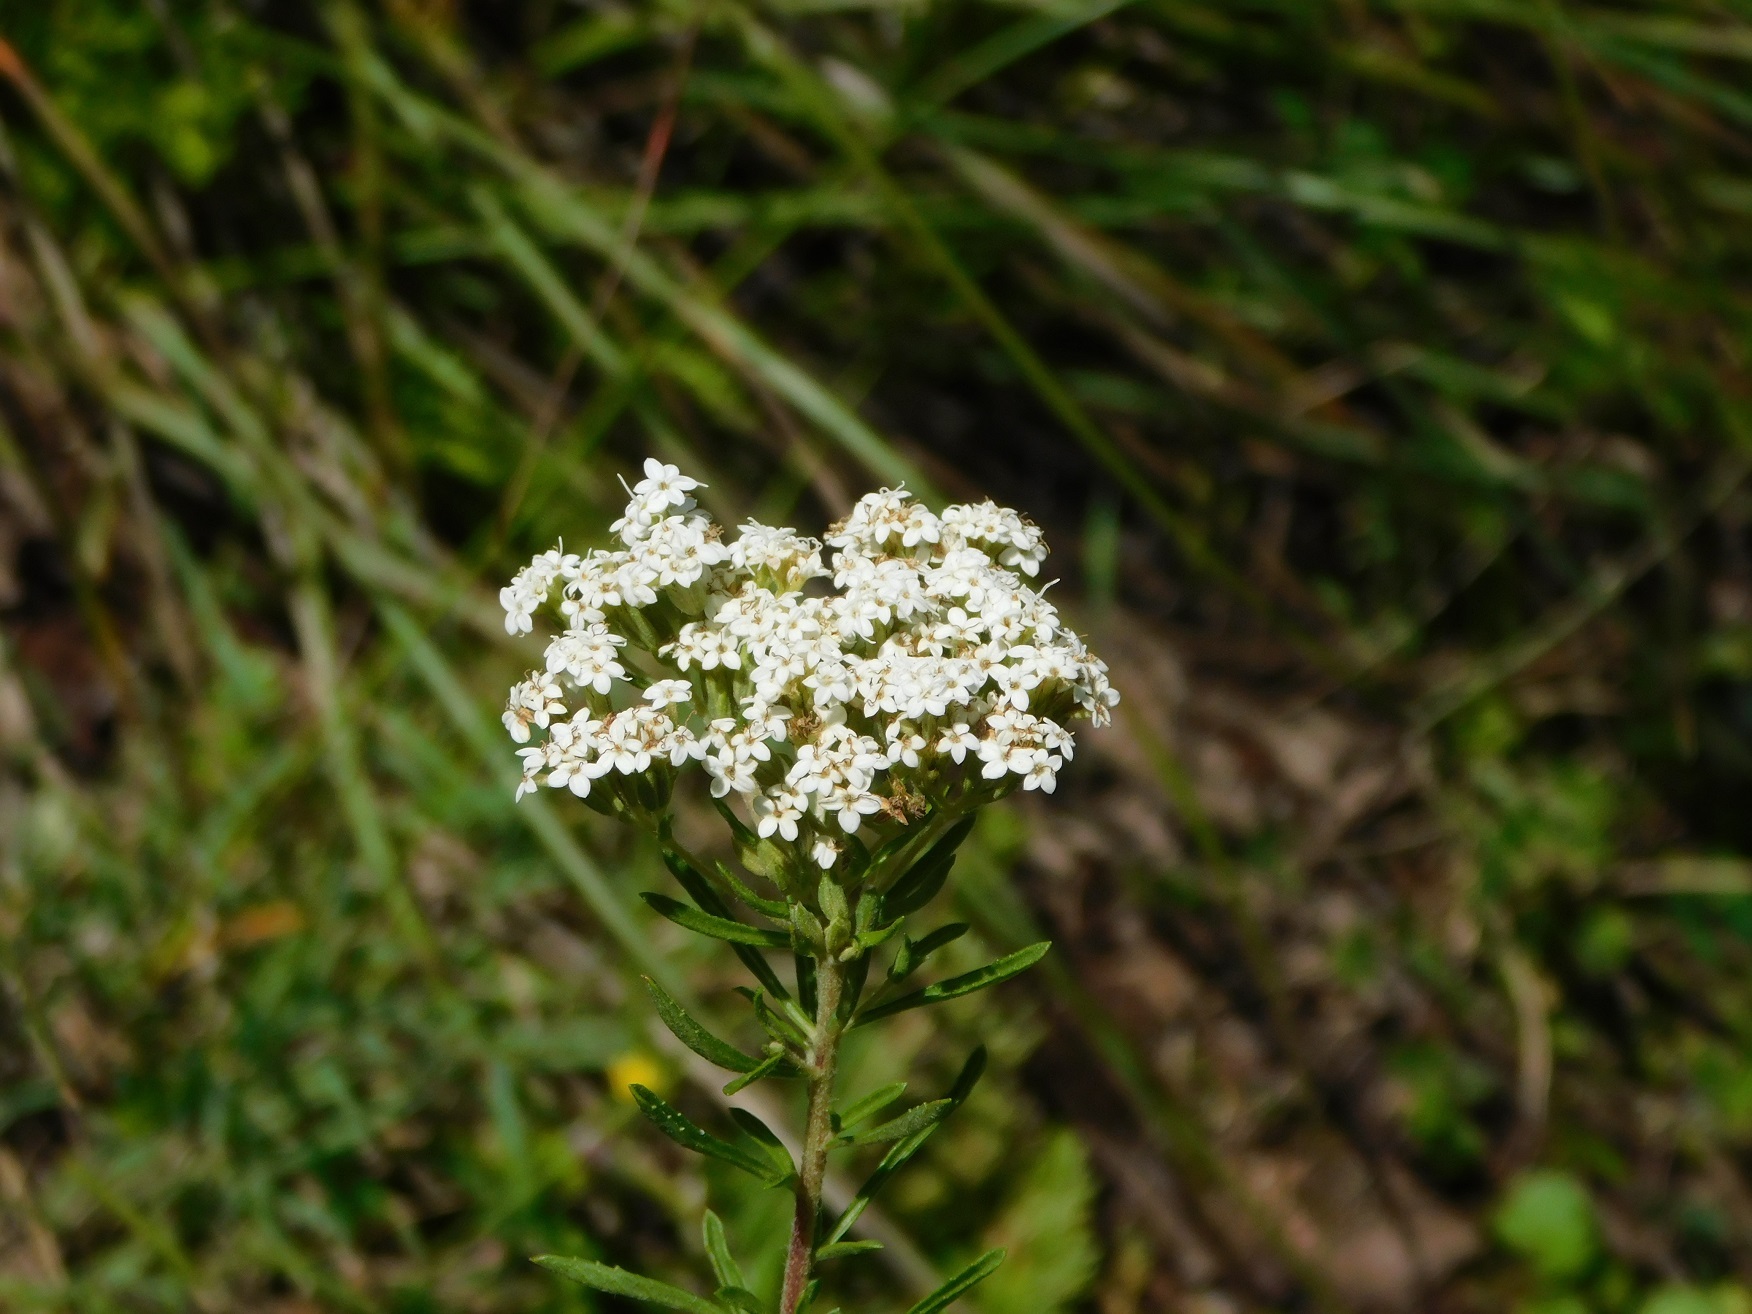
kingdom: Plantae
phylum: Tracheophyta
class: Magnoliopsida
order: Asterales
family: Asteraceae
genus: Stevia
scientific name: Stevia serrata
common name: Sawtooth candyleaf
